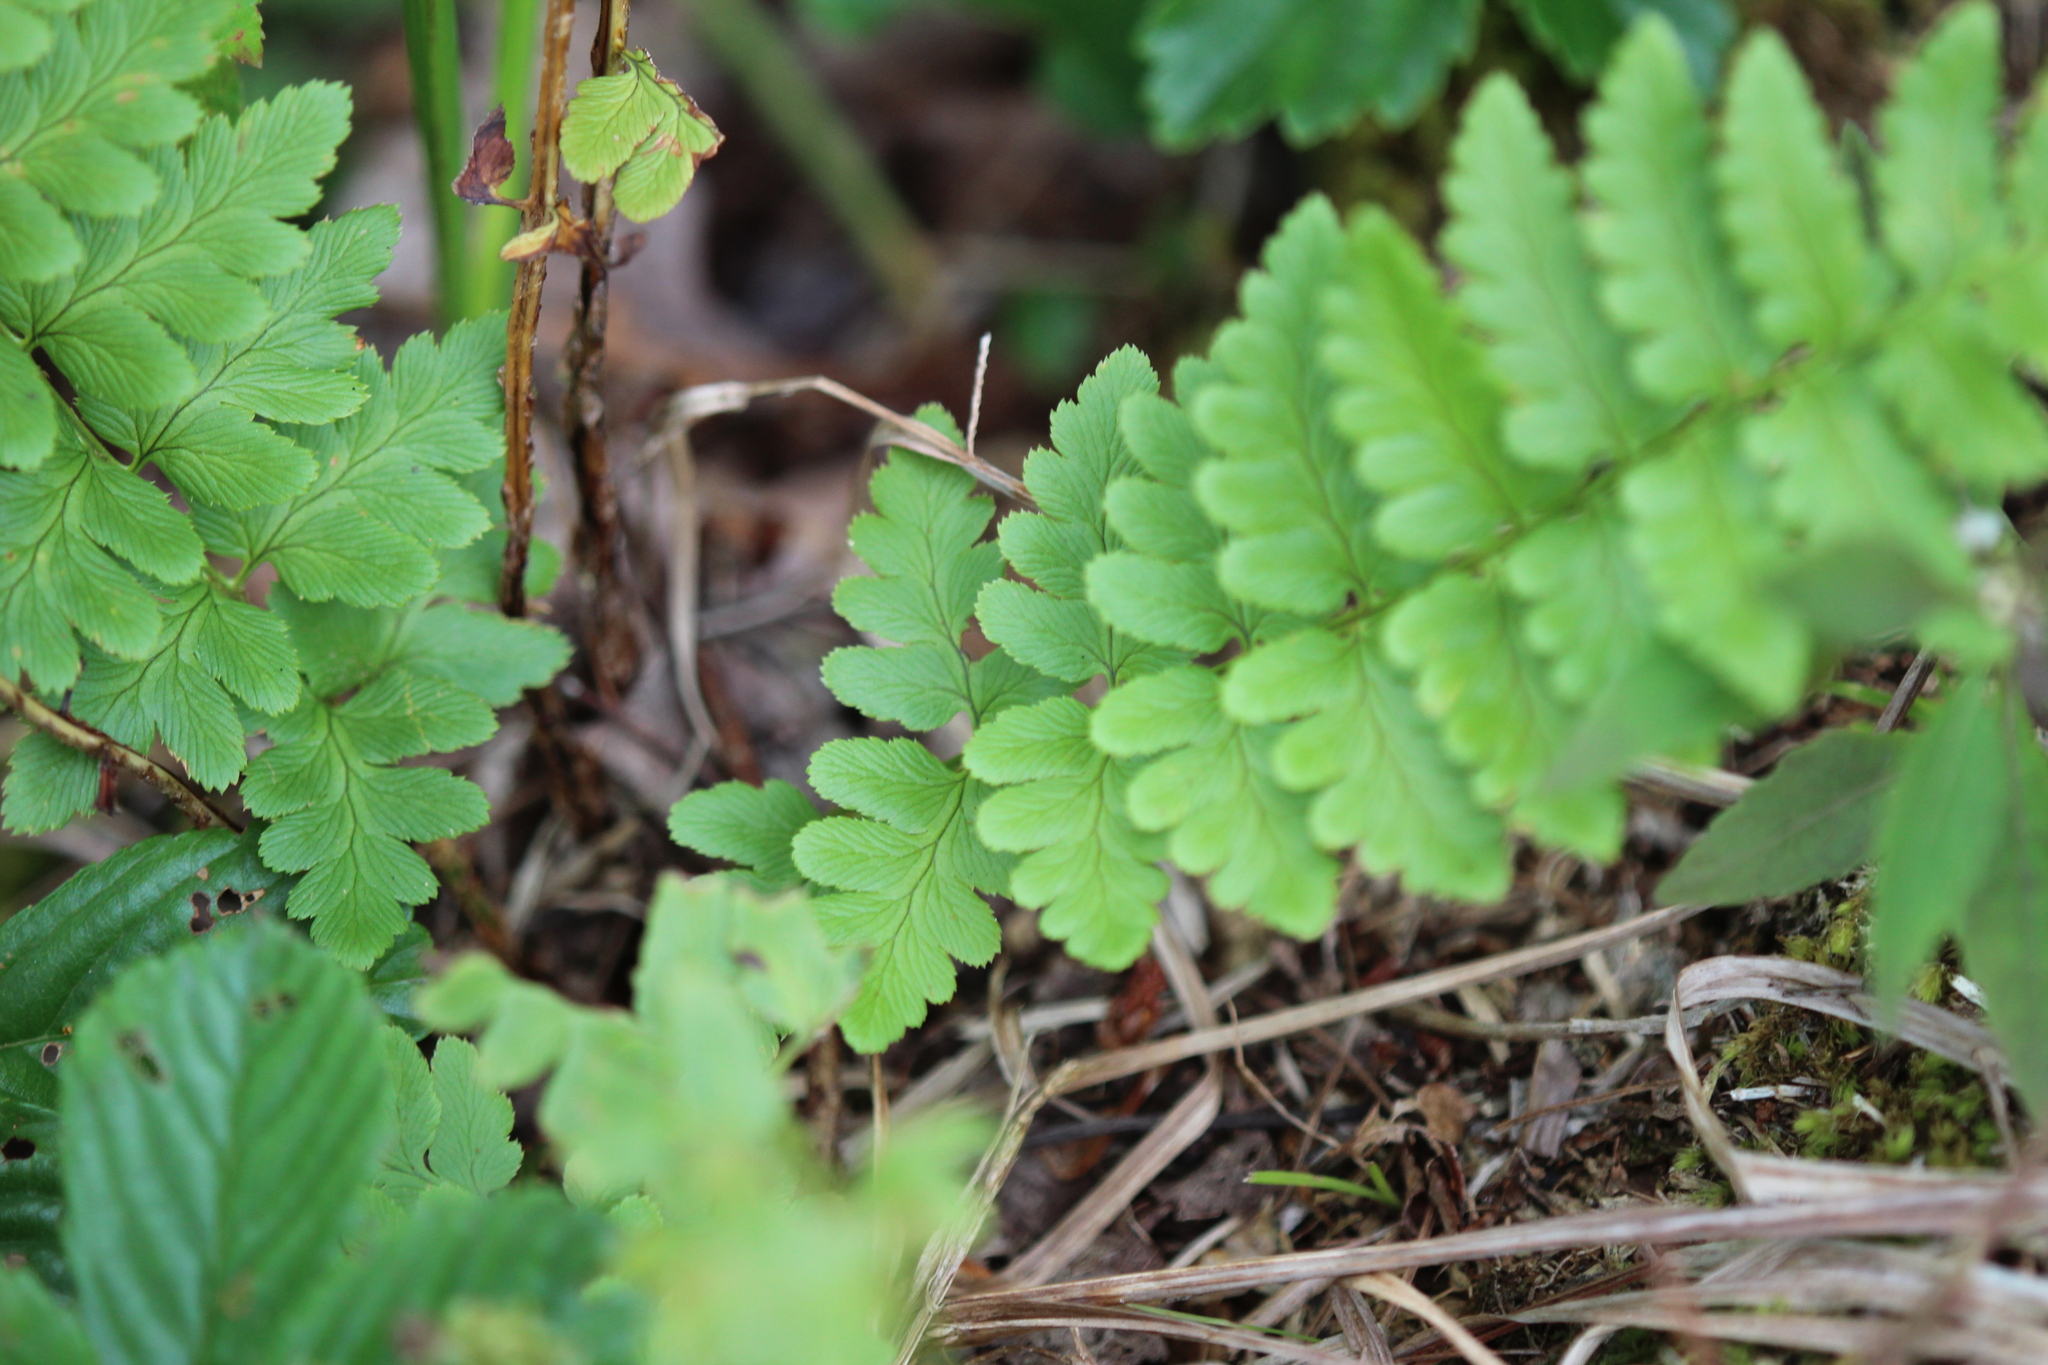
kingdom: Plantae
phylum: Tracheophyta
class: Polypodiopsida
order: Polypodiales
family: Dryopteridaceae
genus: Dryopteris
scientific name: Dryopteris cristata
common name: Crested wood fern
